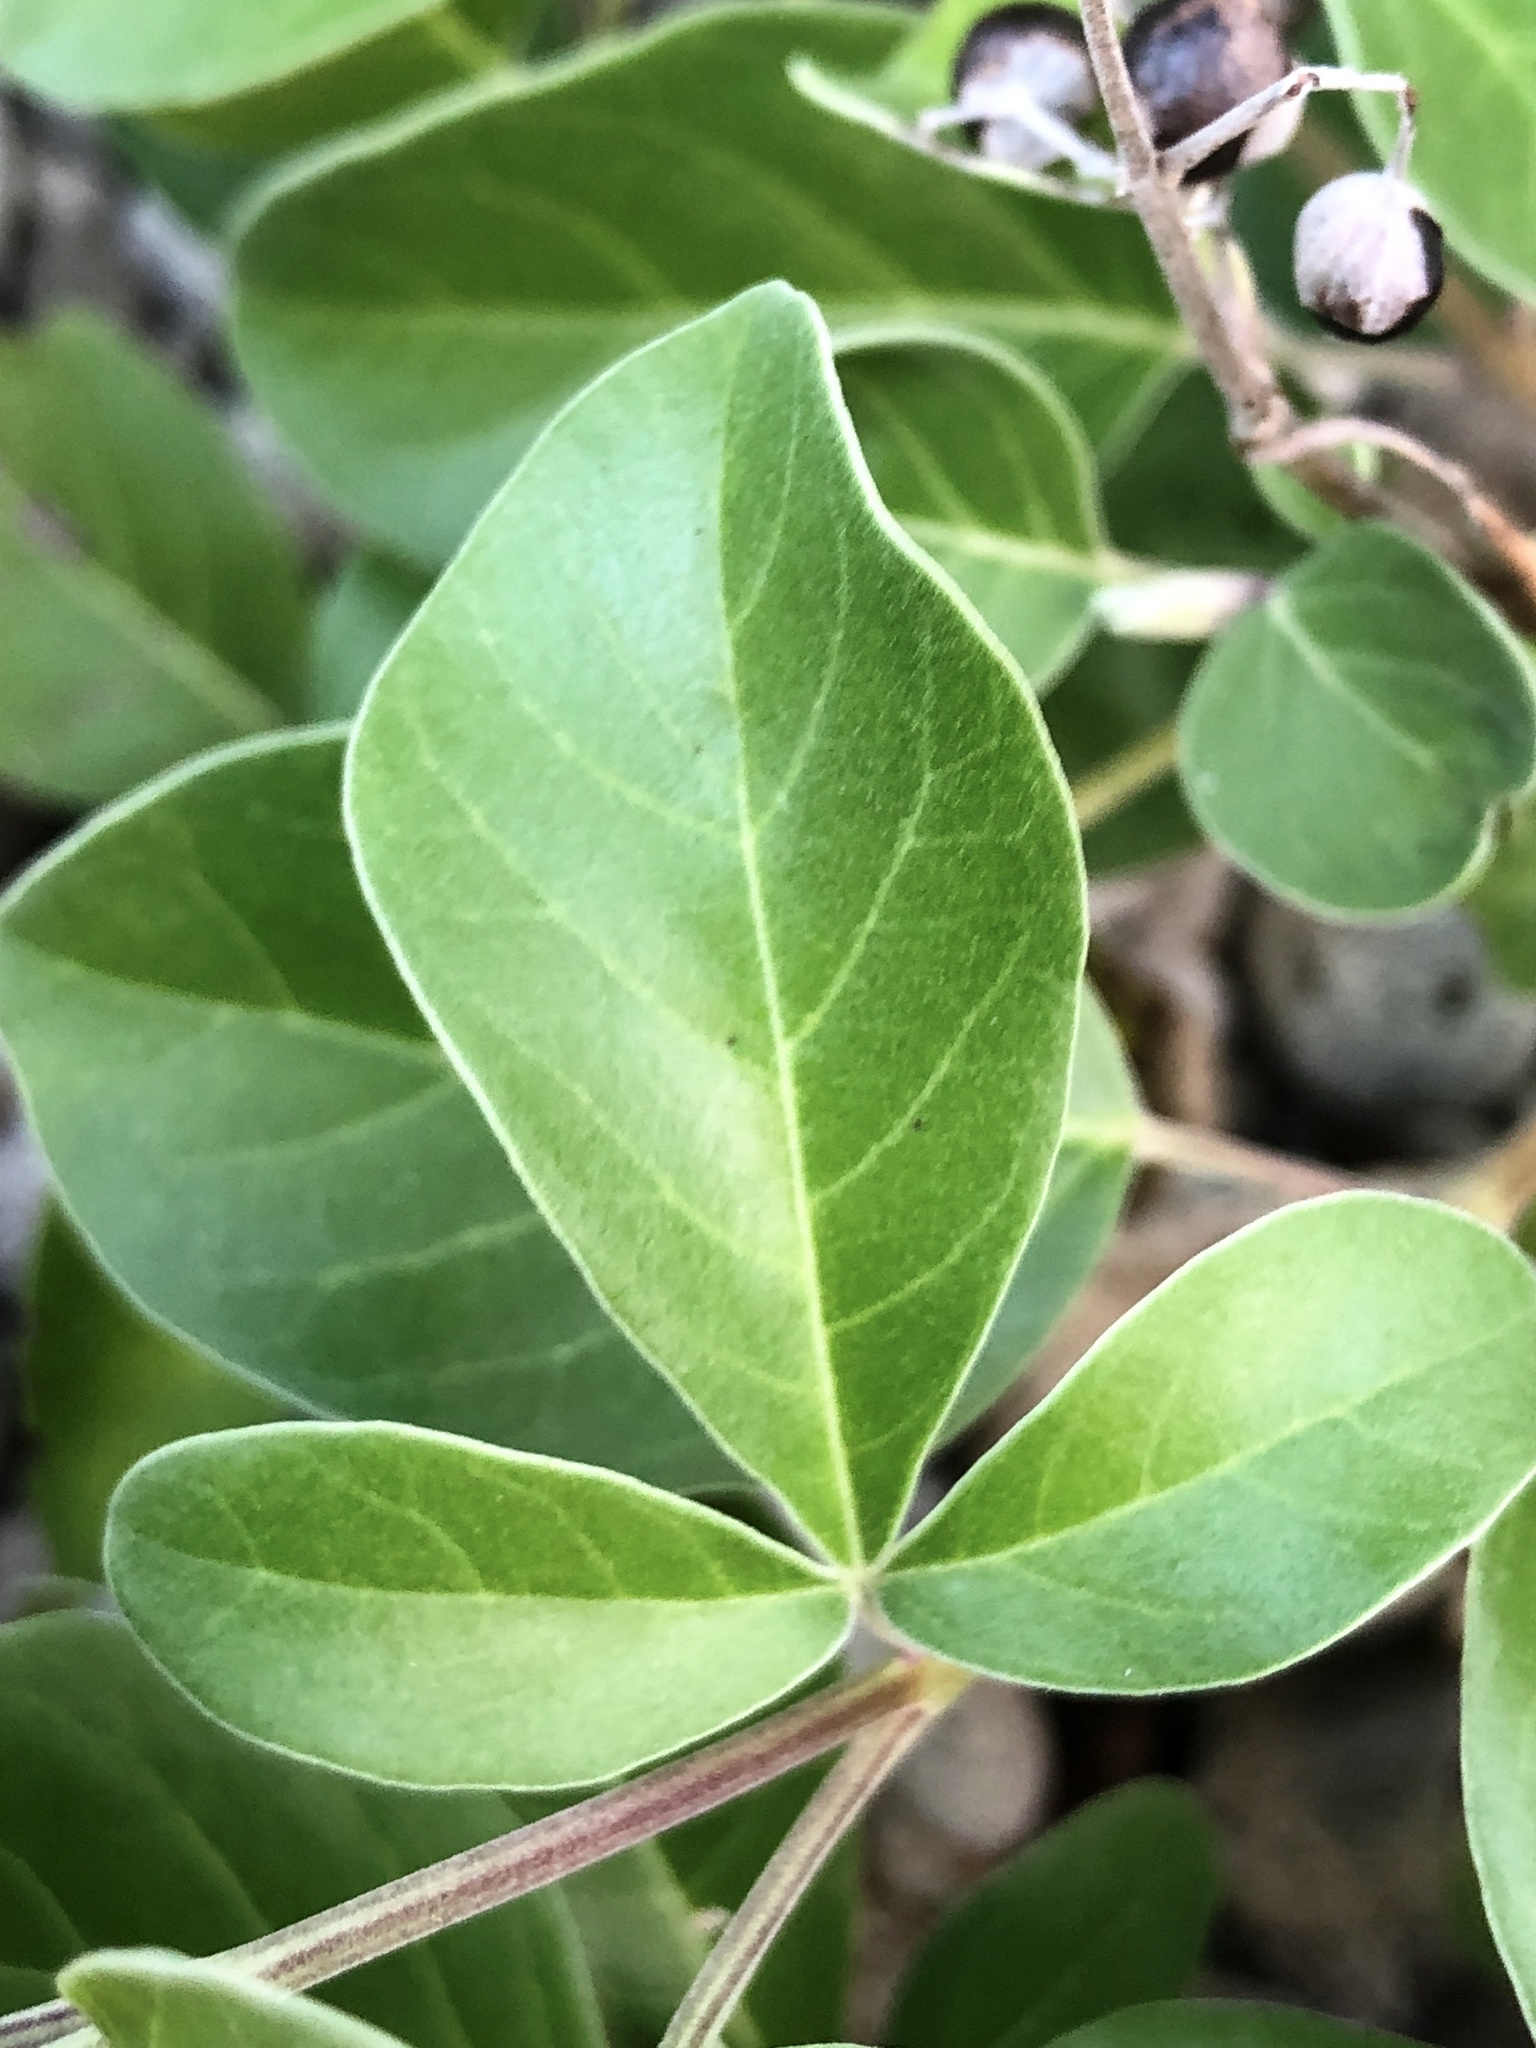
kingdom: Plantae
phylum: Tracheophyta
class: Magnoliopsida
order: Lamiales
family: Lamiaceae
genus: Vitex
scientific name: Vitex rotundifolia
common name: Beach vitex
